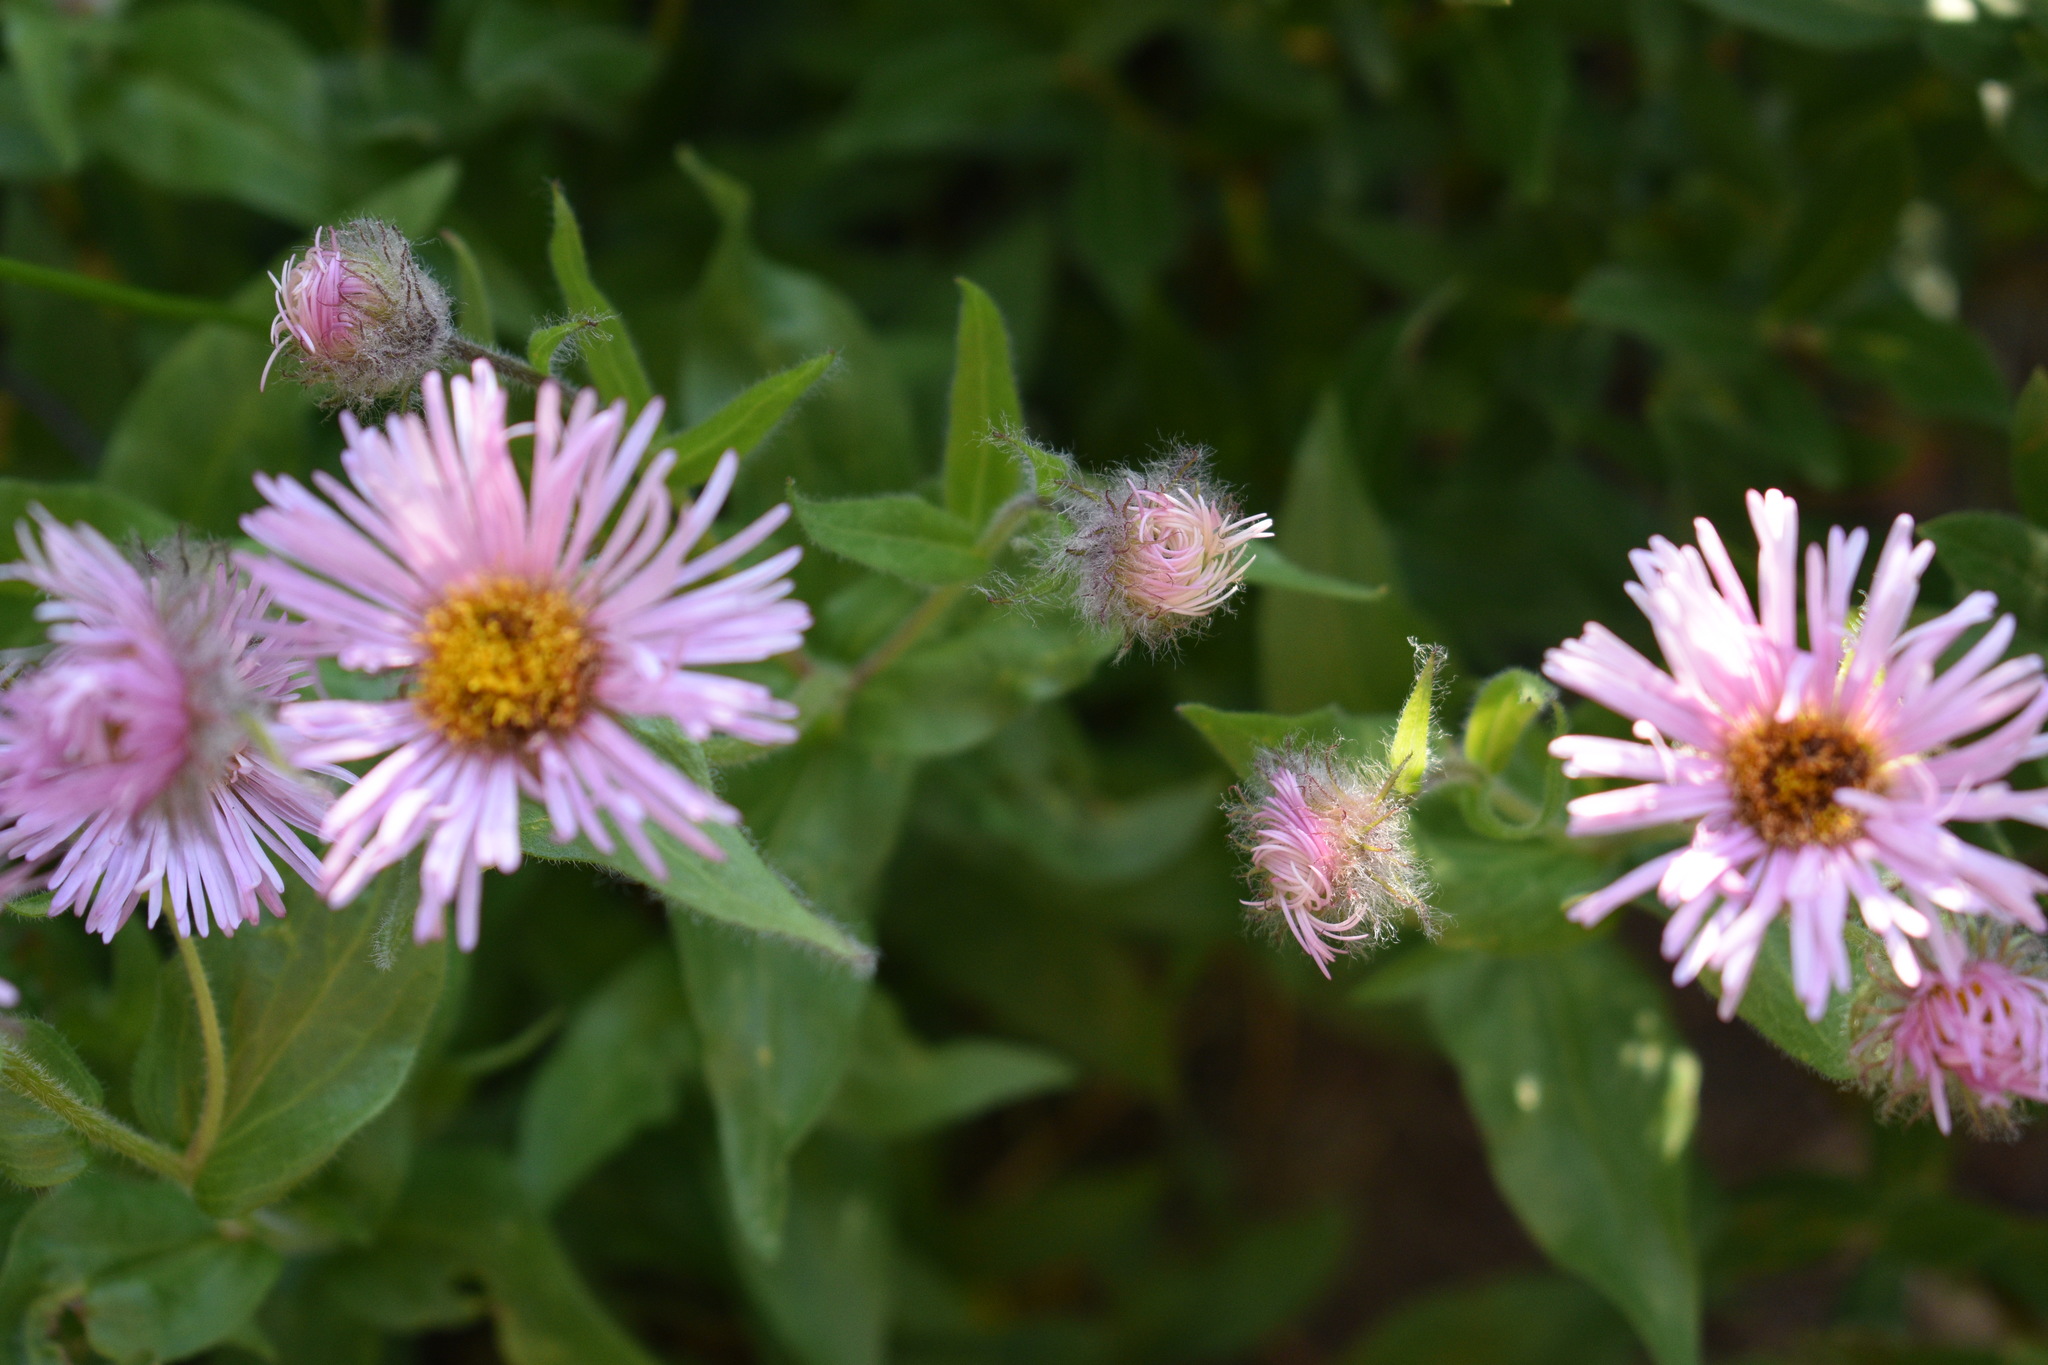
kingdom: Plantae
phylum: Tracheophyta
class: Magnoliopsida
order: Asterales
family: Asteraceae
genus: Erigeron
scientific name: Erigeron elatior
